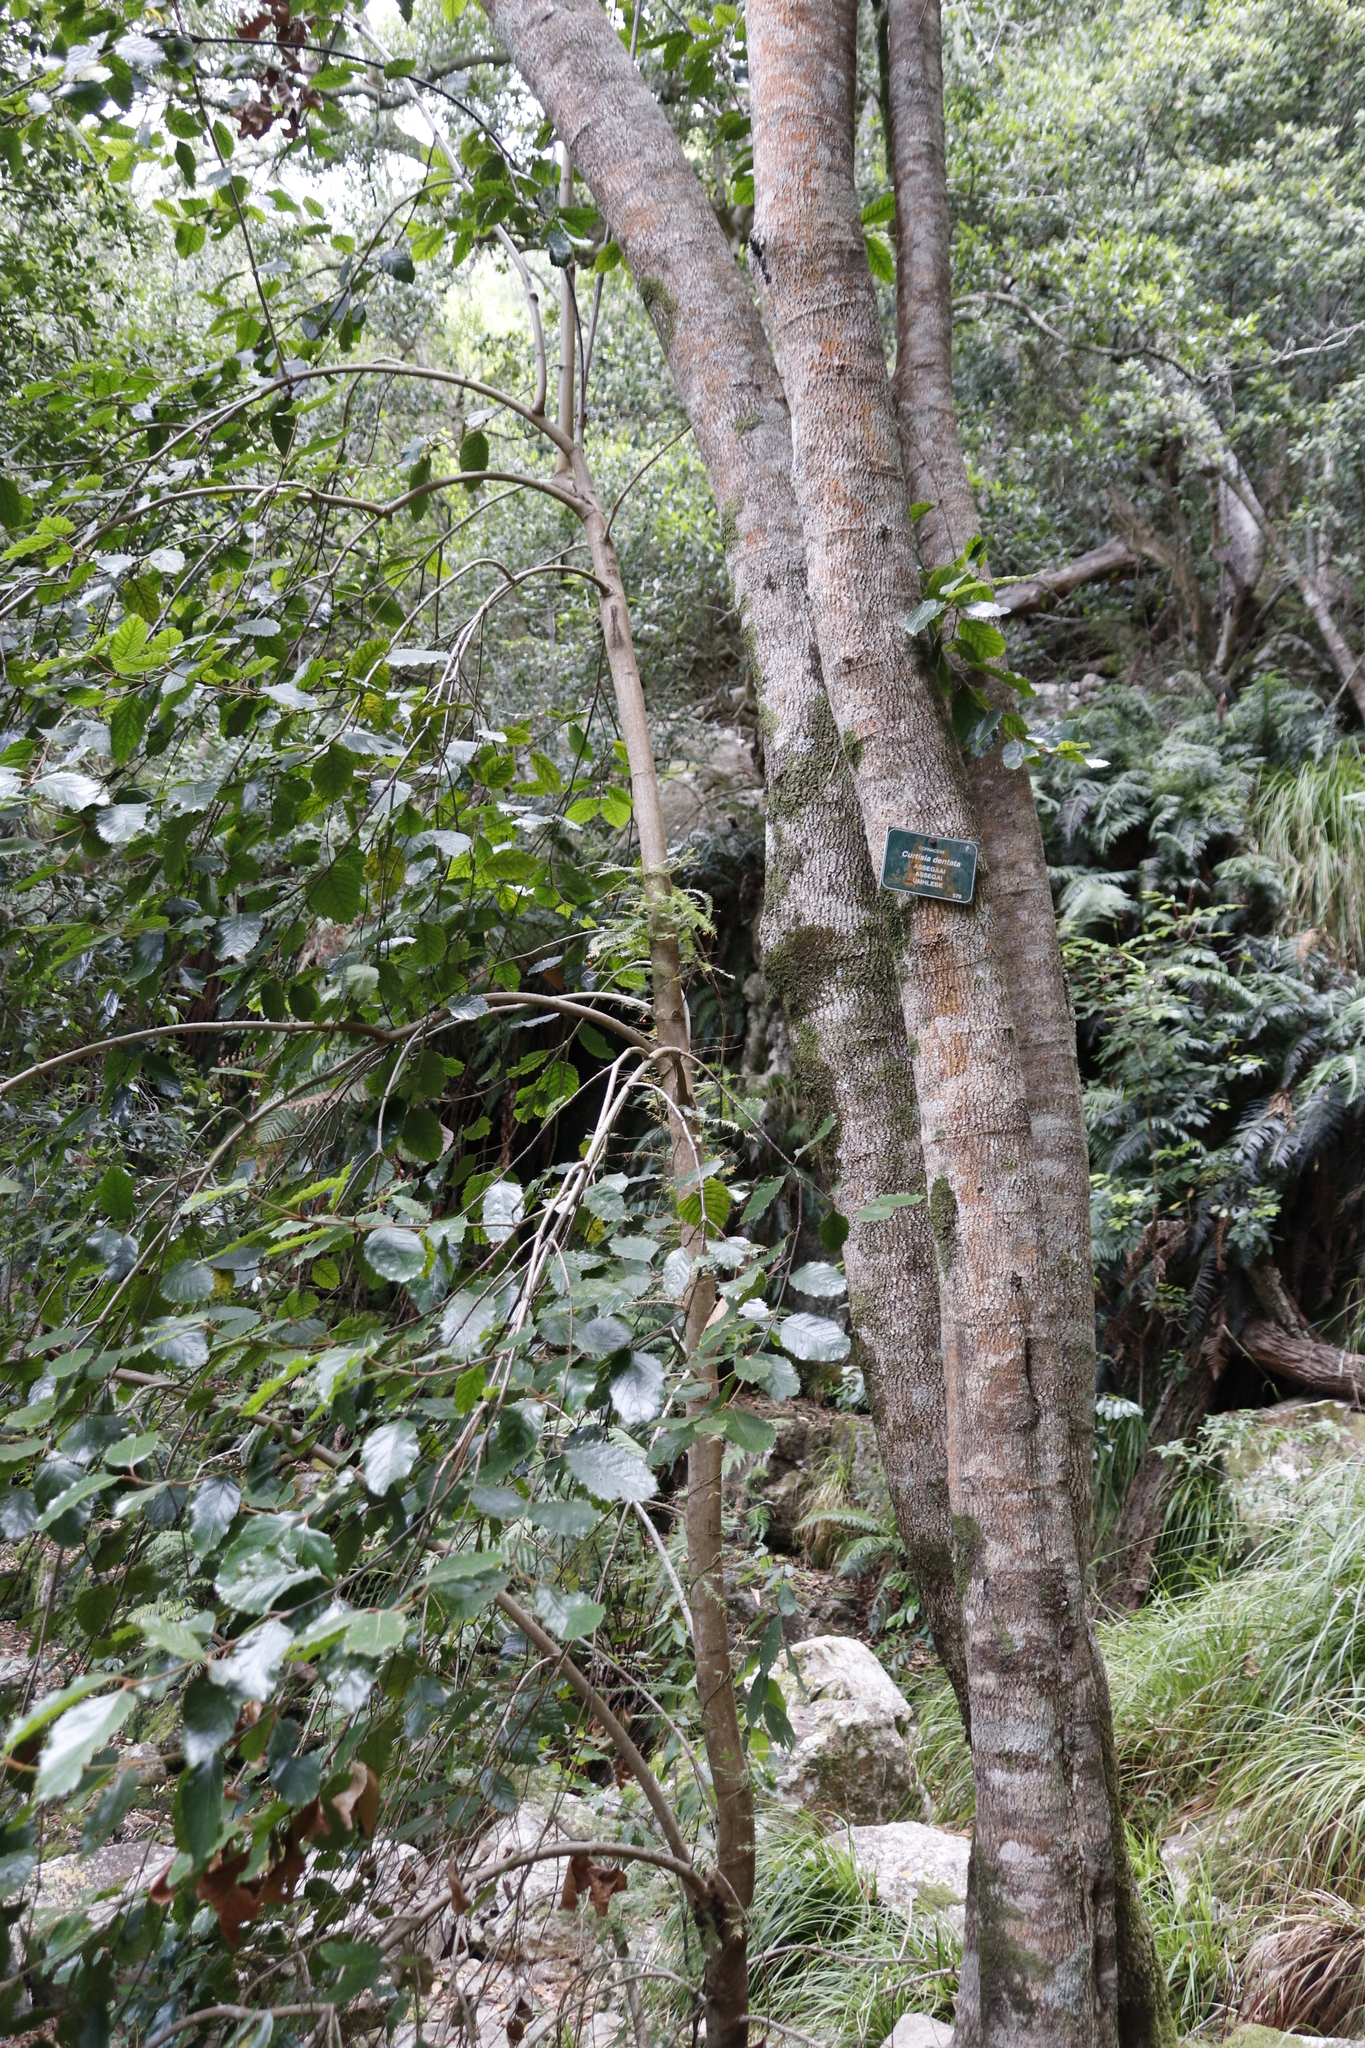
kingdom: Plantae
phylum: Tracheophyta
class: Magnoliopsida
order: Cornales
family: Curtisiaceae
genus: Curtisia
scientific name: Curtisia dentata
